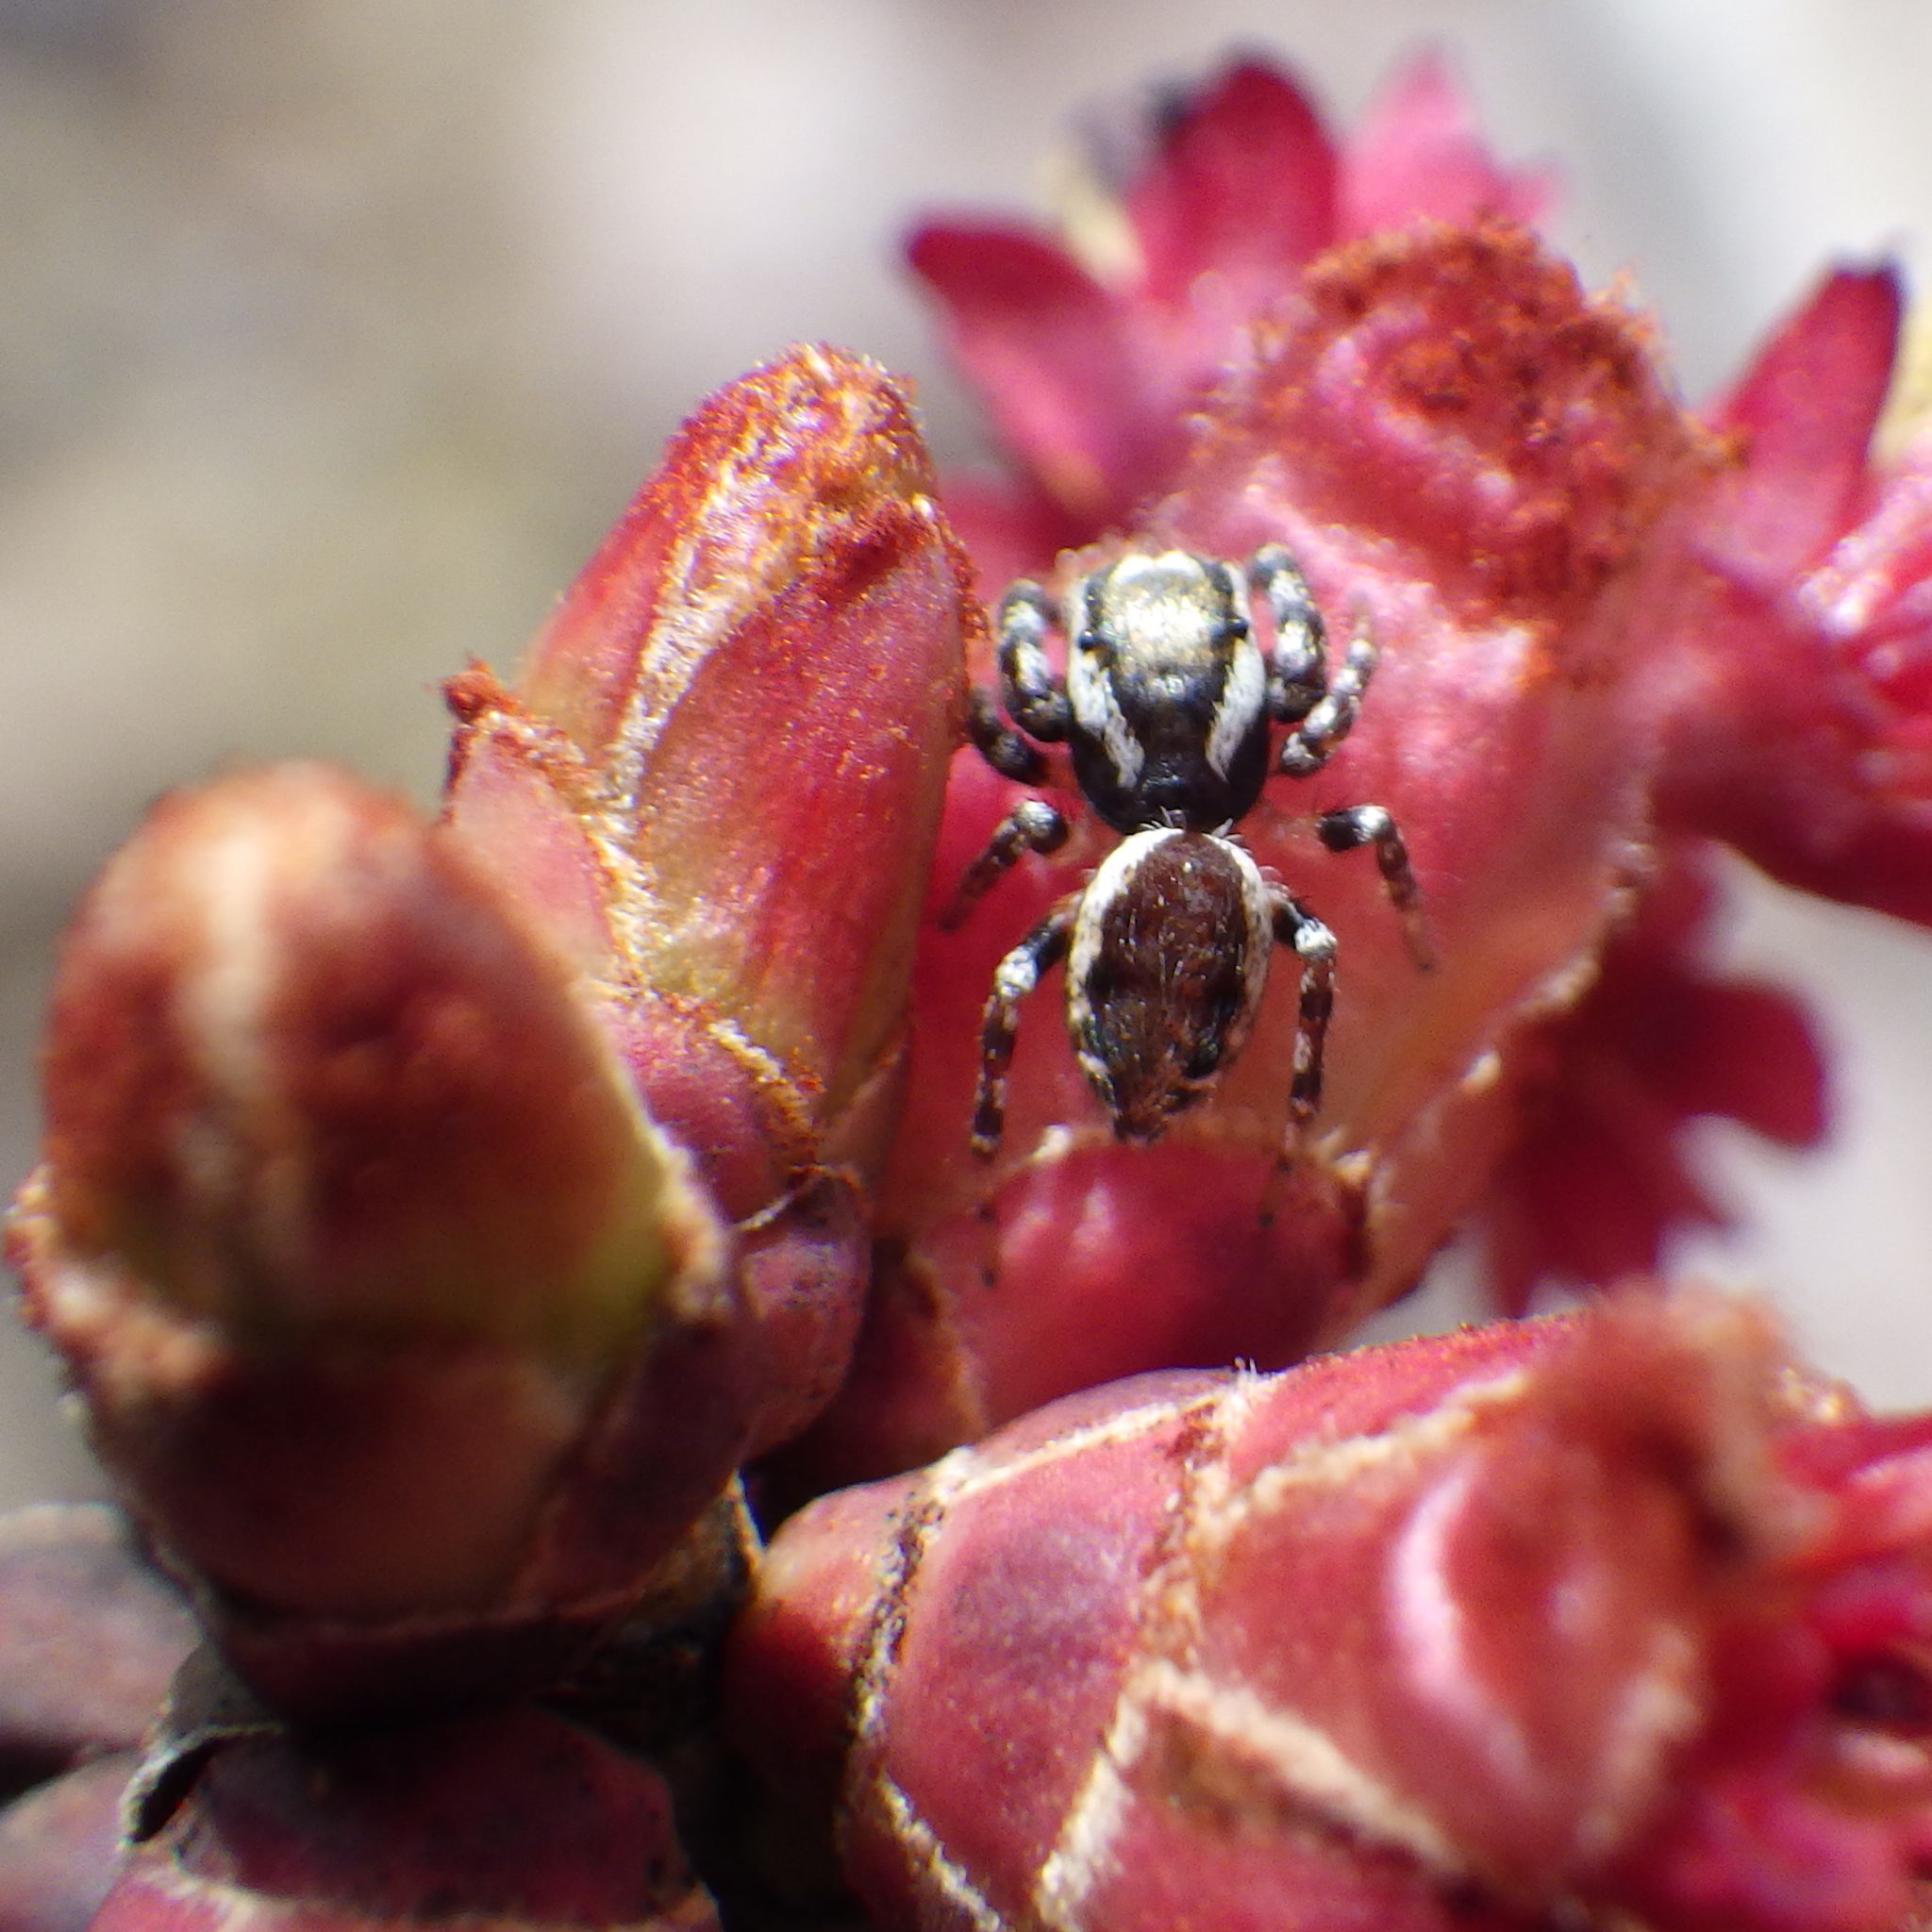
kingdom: Animalia
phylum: Arthropoda
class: Arachnida
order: Araneae
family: Salticidae
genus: Pelegrina
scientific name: Pelegrina proterva
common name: Common white-cheeked jumping spider
